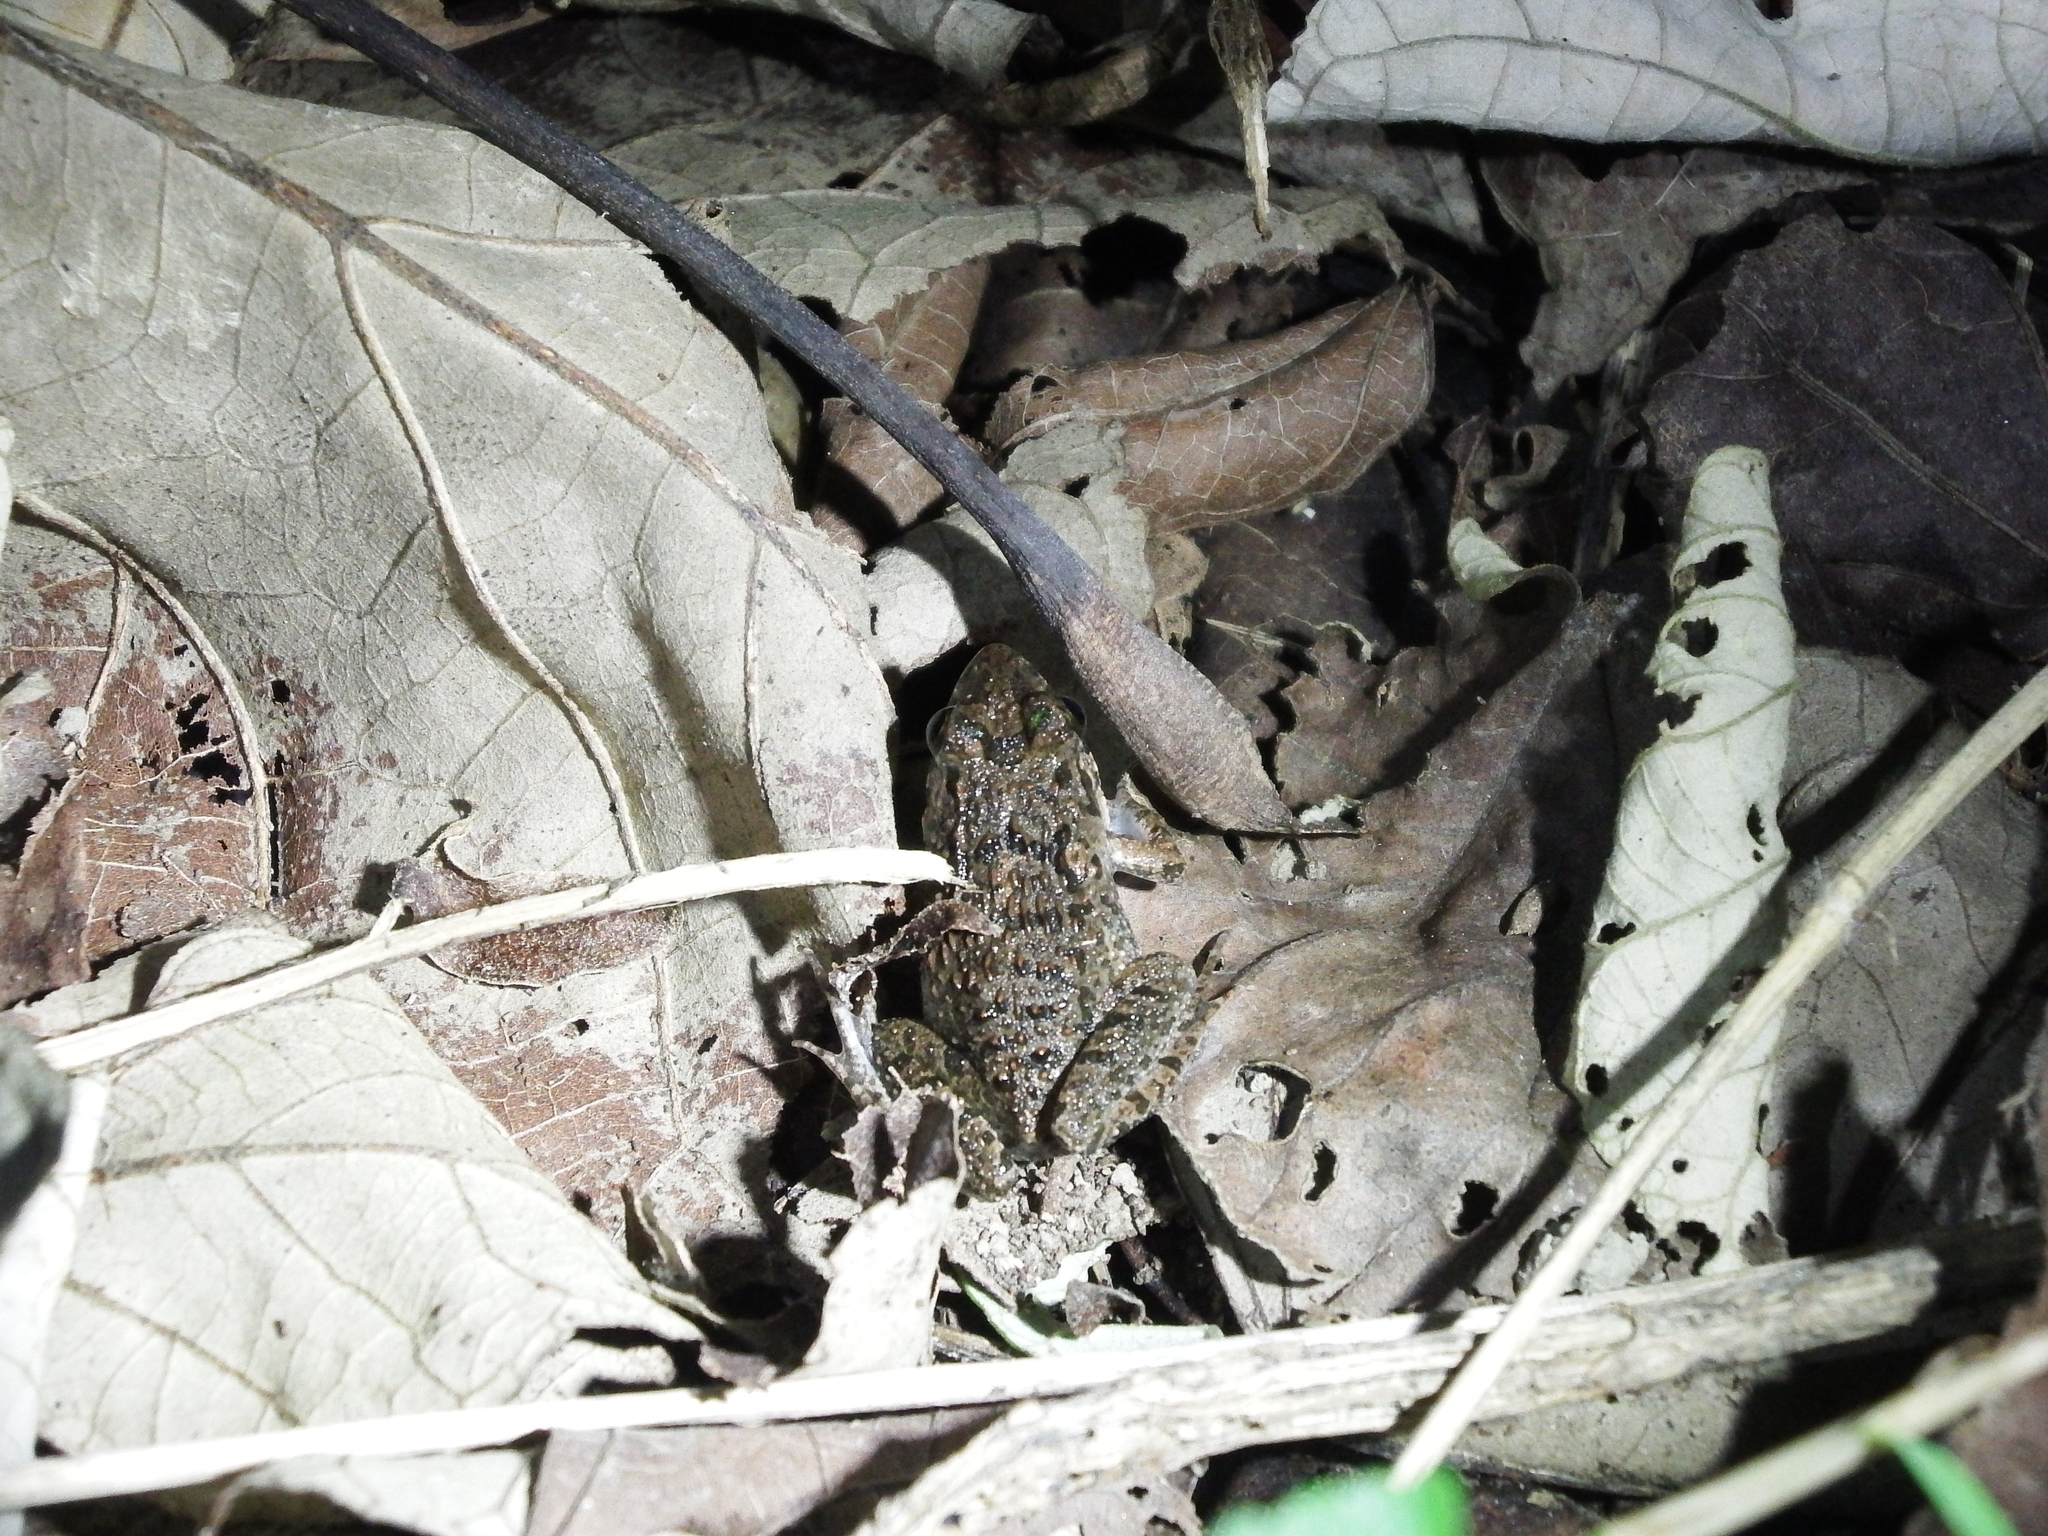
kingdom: Animalia
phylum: Chordata
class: Amphibia
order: Anura
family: Dicroglossidae
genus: Fejervarya
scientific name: Fejervarya limnocharis
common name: Asian grass frog/common pond frog/field frog/grass frog/indian rice frog
